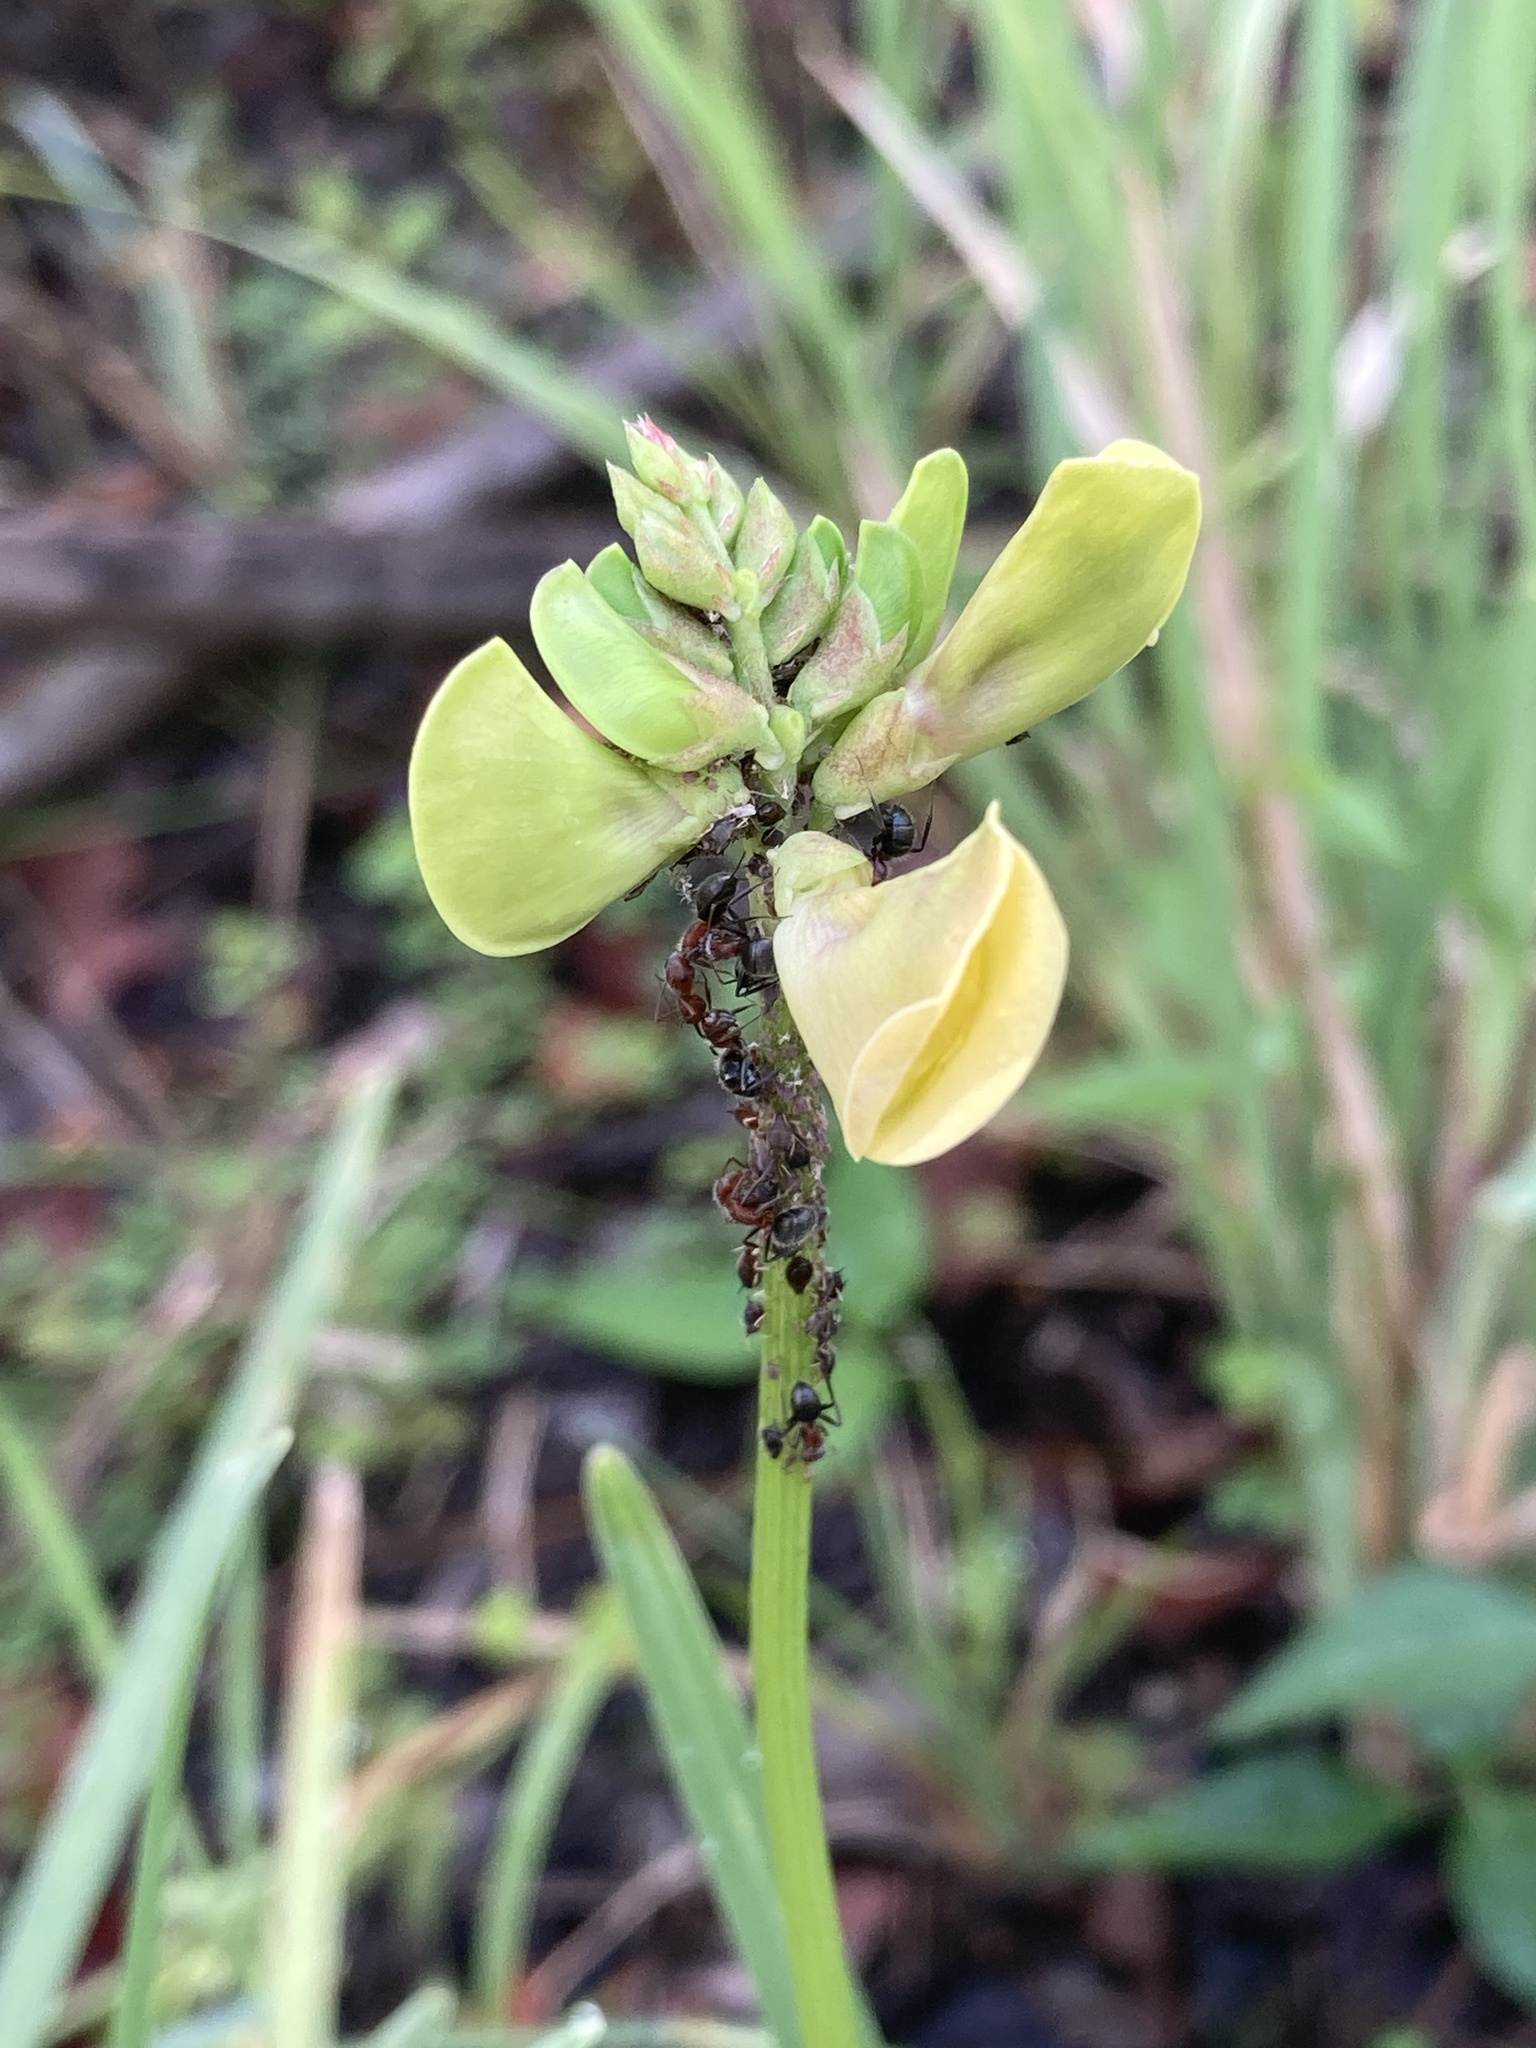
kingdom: Plantae
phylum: Tracheophyta
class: Magnoliopsida
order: Fabales
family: Fabaceae
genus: Vigna
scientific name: Vigna luteola
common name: Hairypod cowpea
